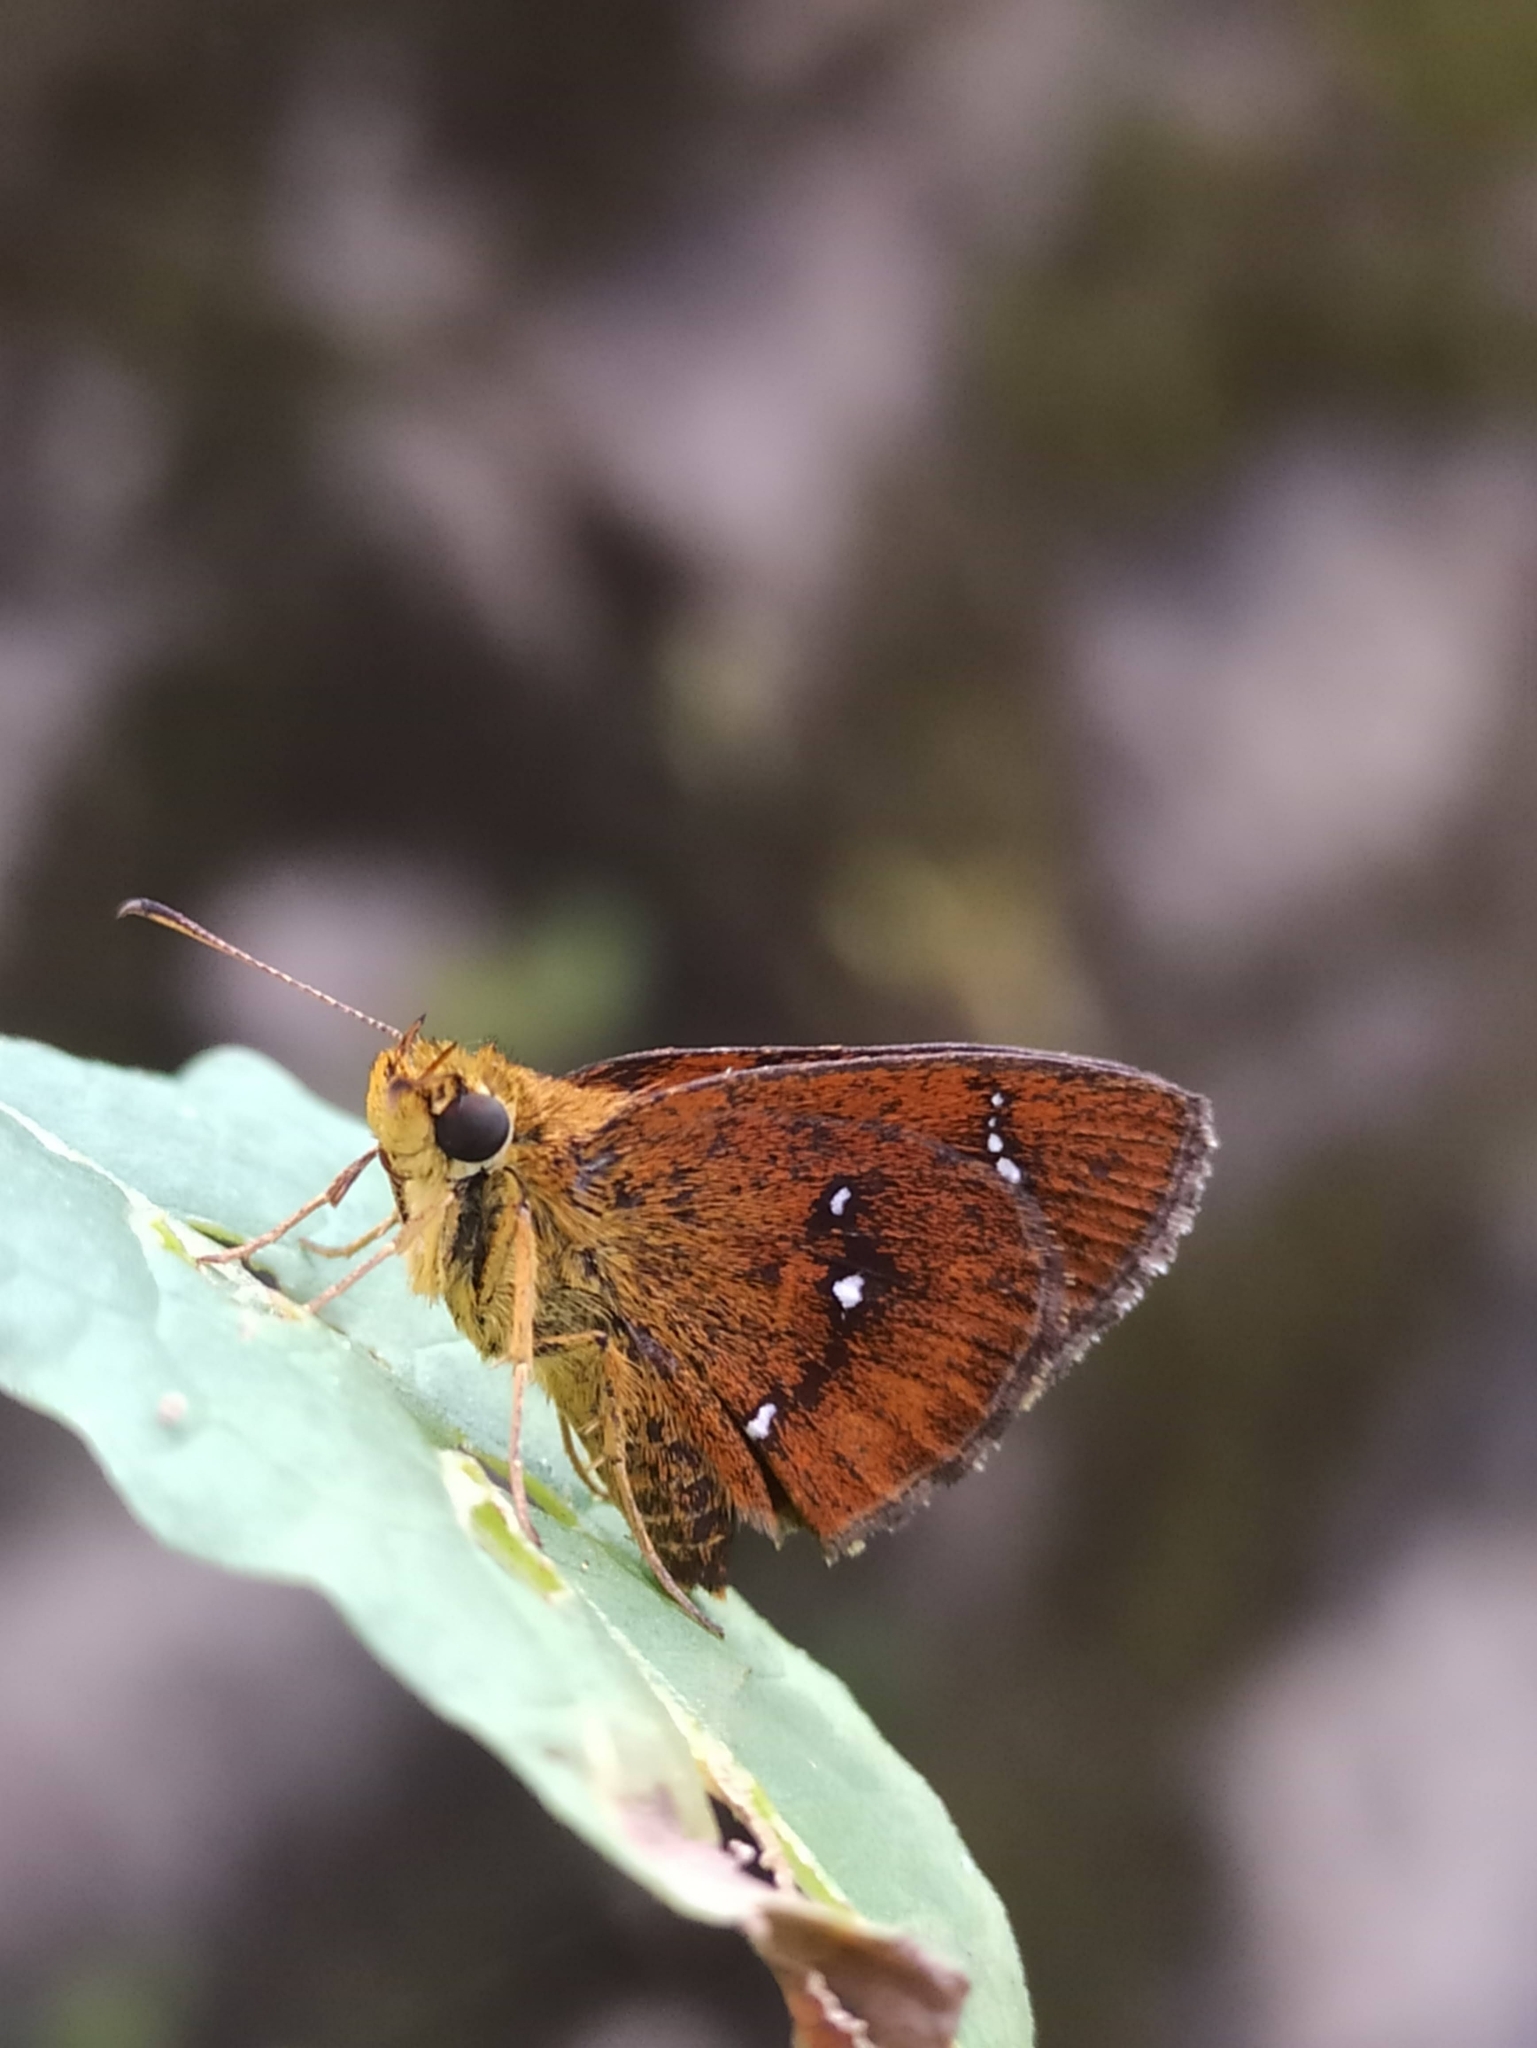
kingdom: Animalia
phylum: Arthropoda
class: Insecta
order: Lepidoptera
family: Hesperiidae
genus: Iambrix
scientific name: Iambrix salsala
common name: Chestnut bob
